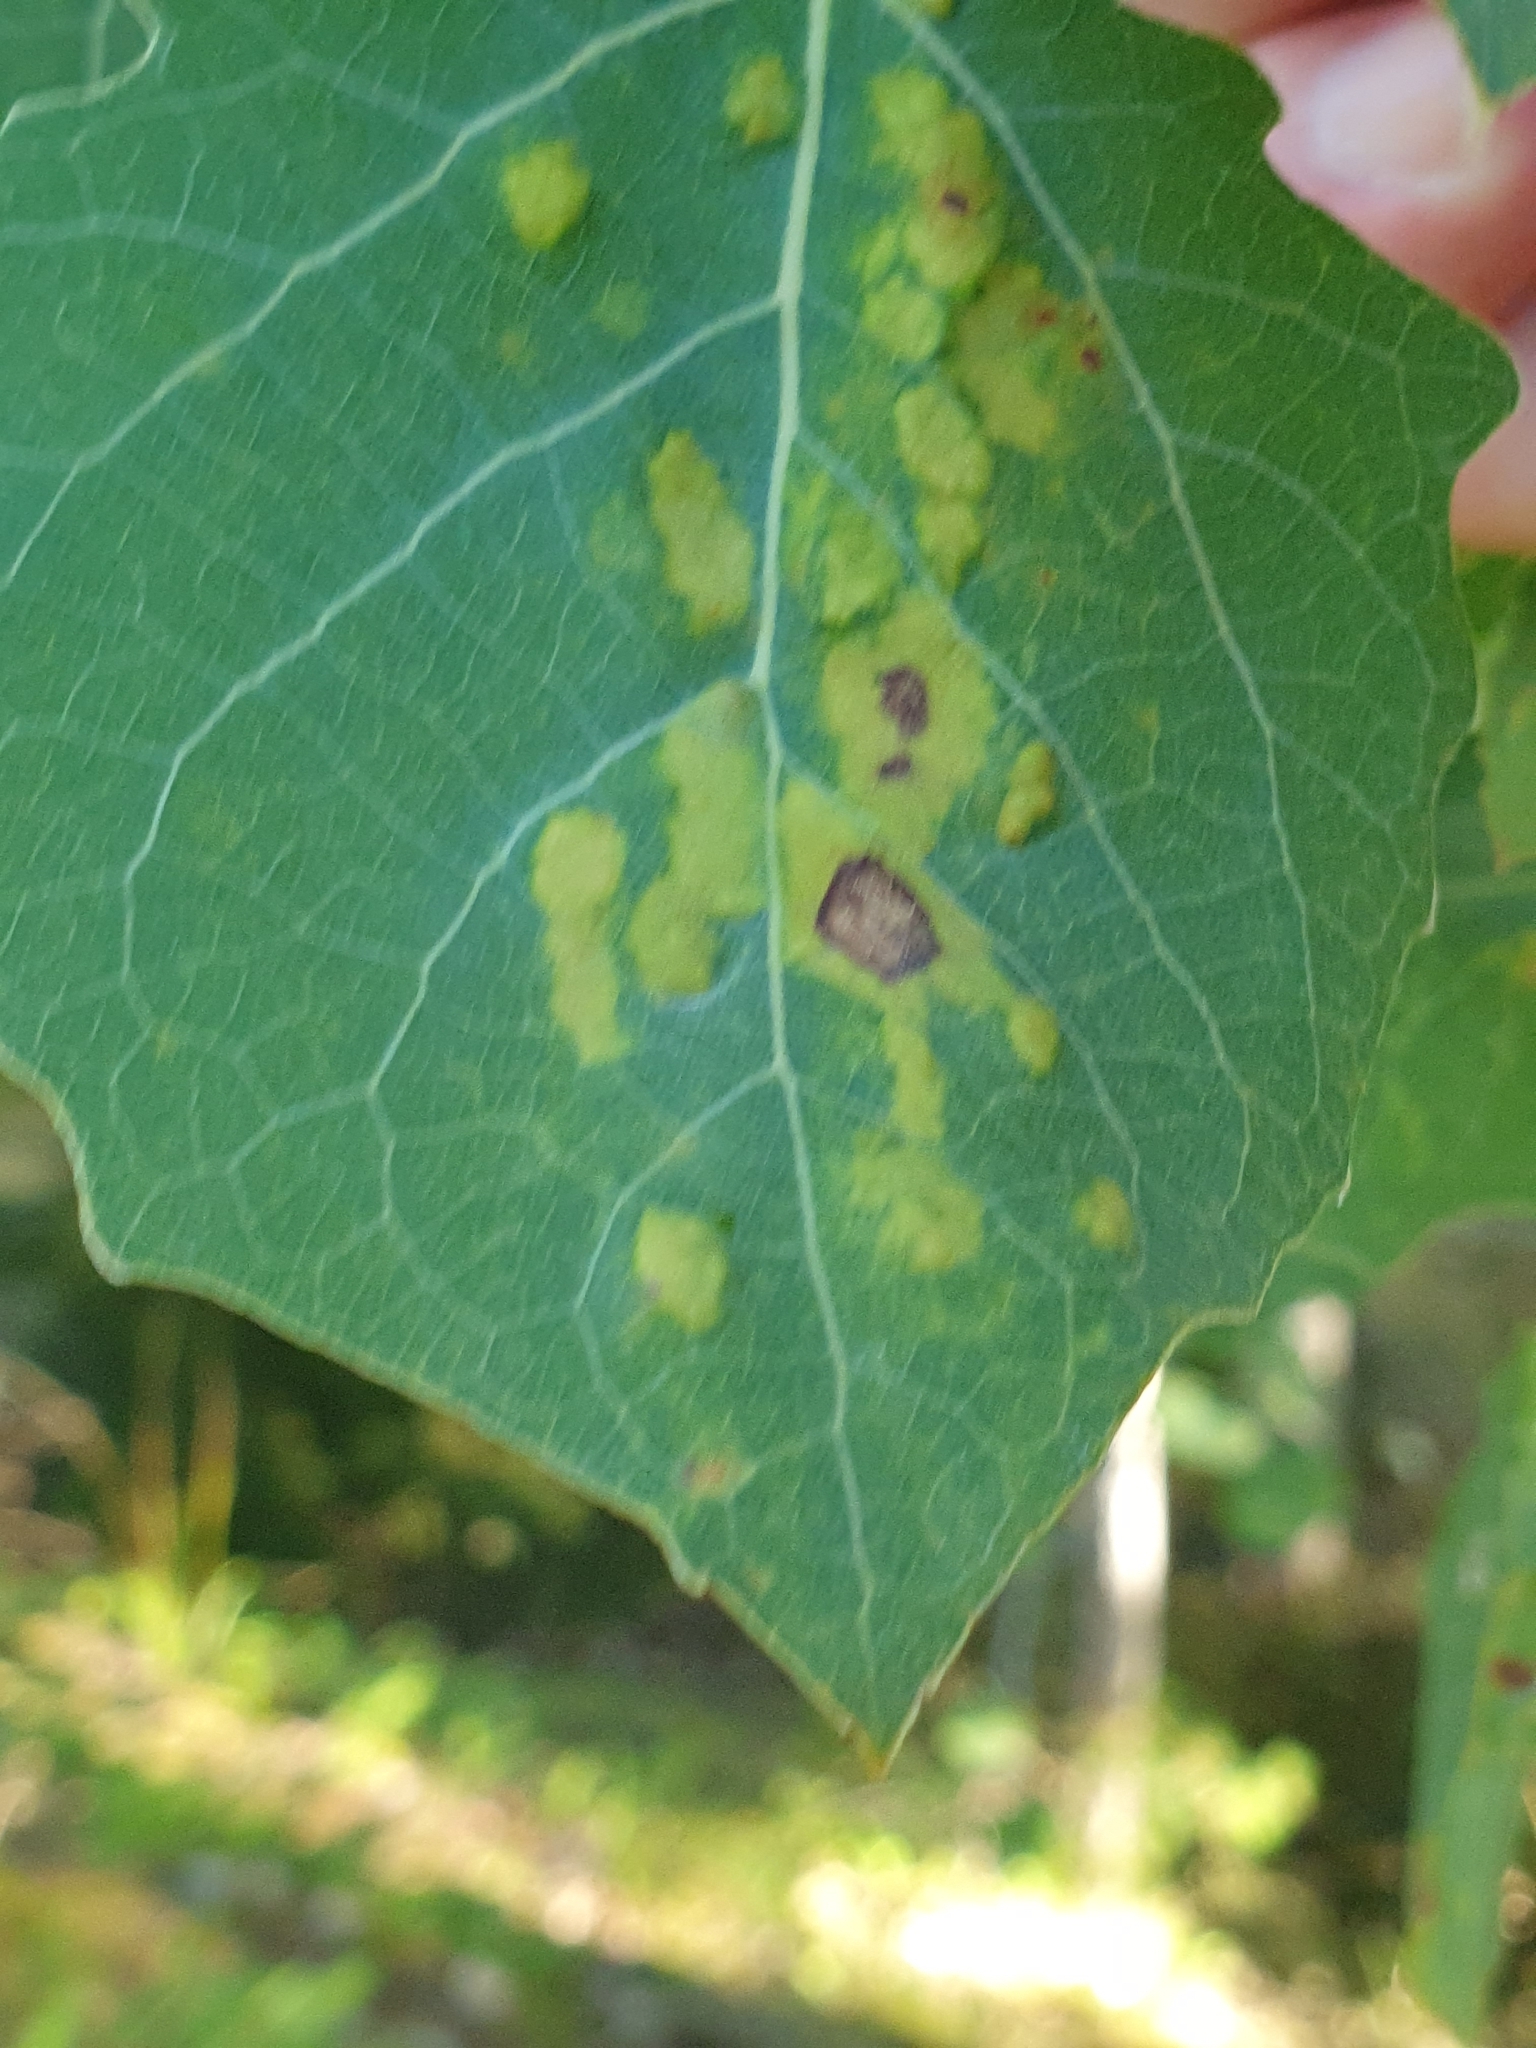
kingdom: Animalia
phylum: Arthropoda
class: Arachnida
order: Trombidiformes
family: Eriophyidae
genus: Phyllocoptes
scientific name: Phyllocoptes populi
